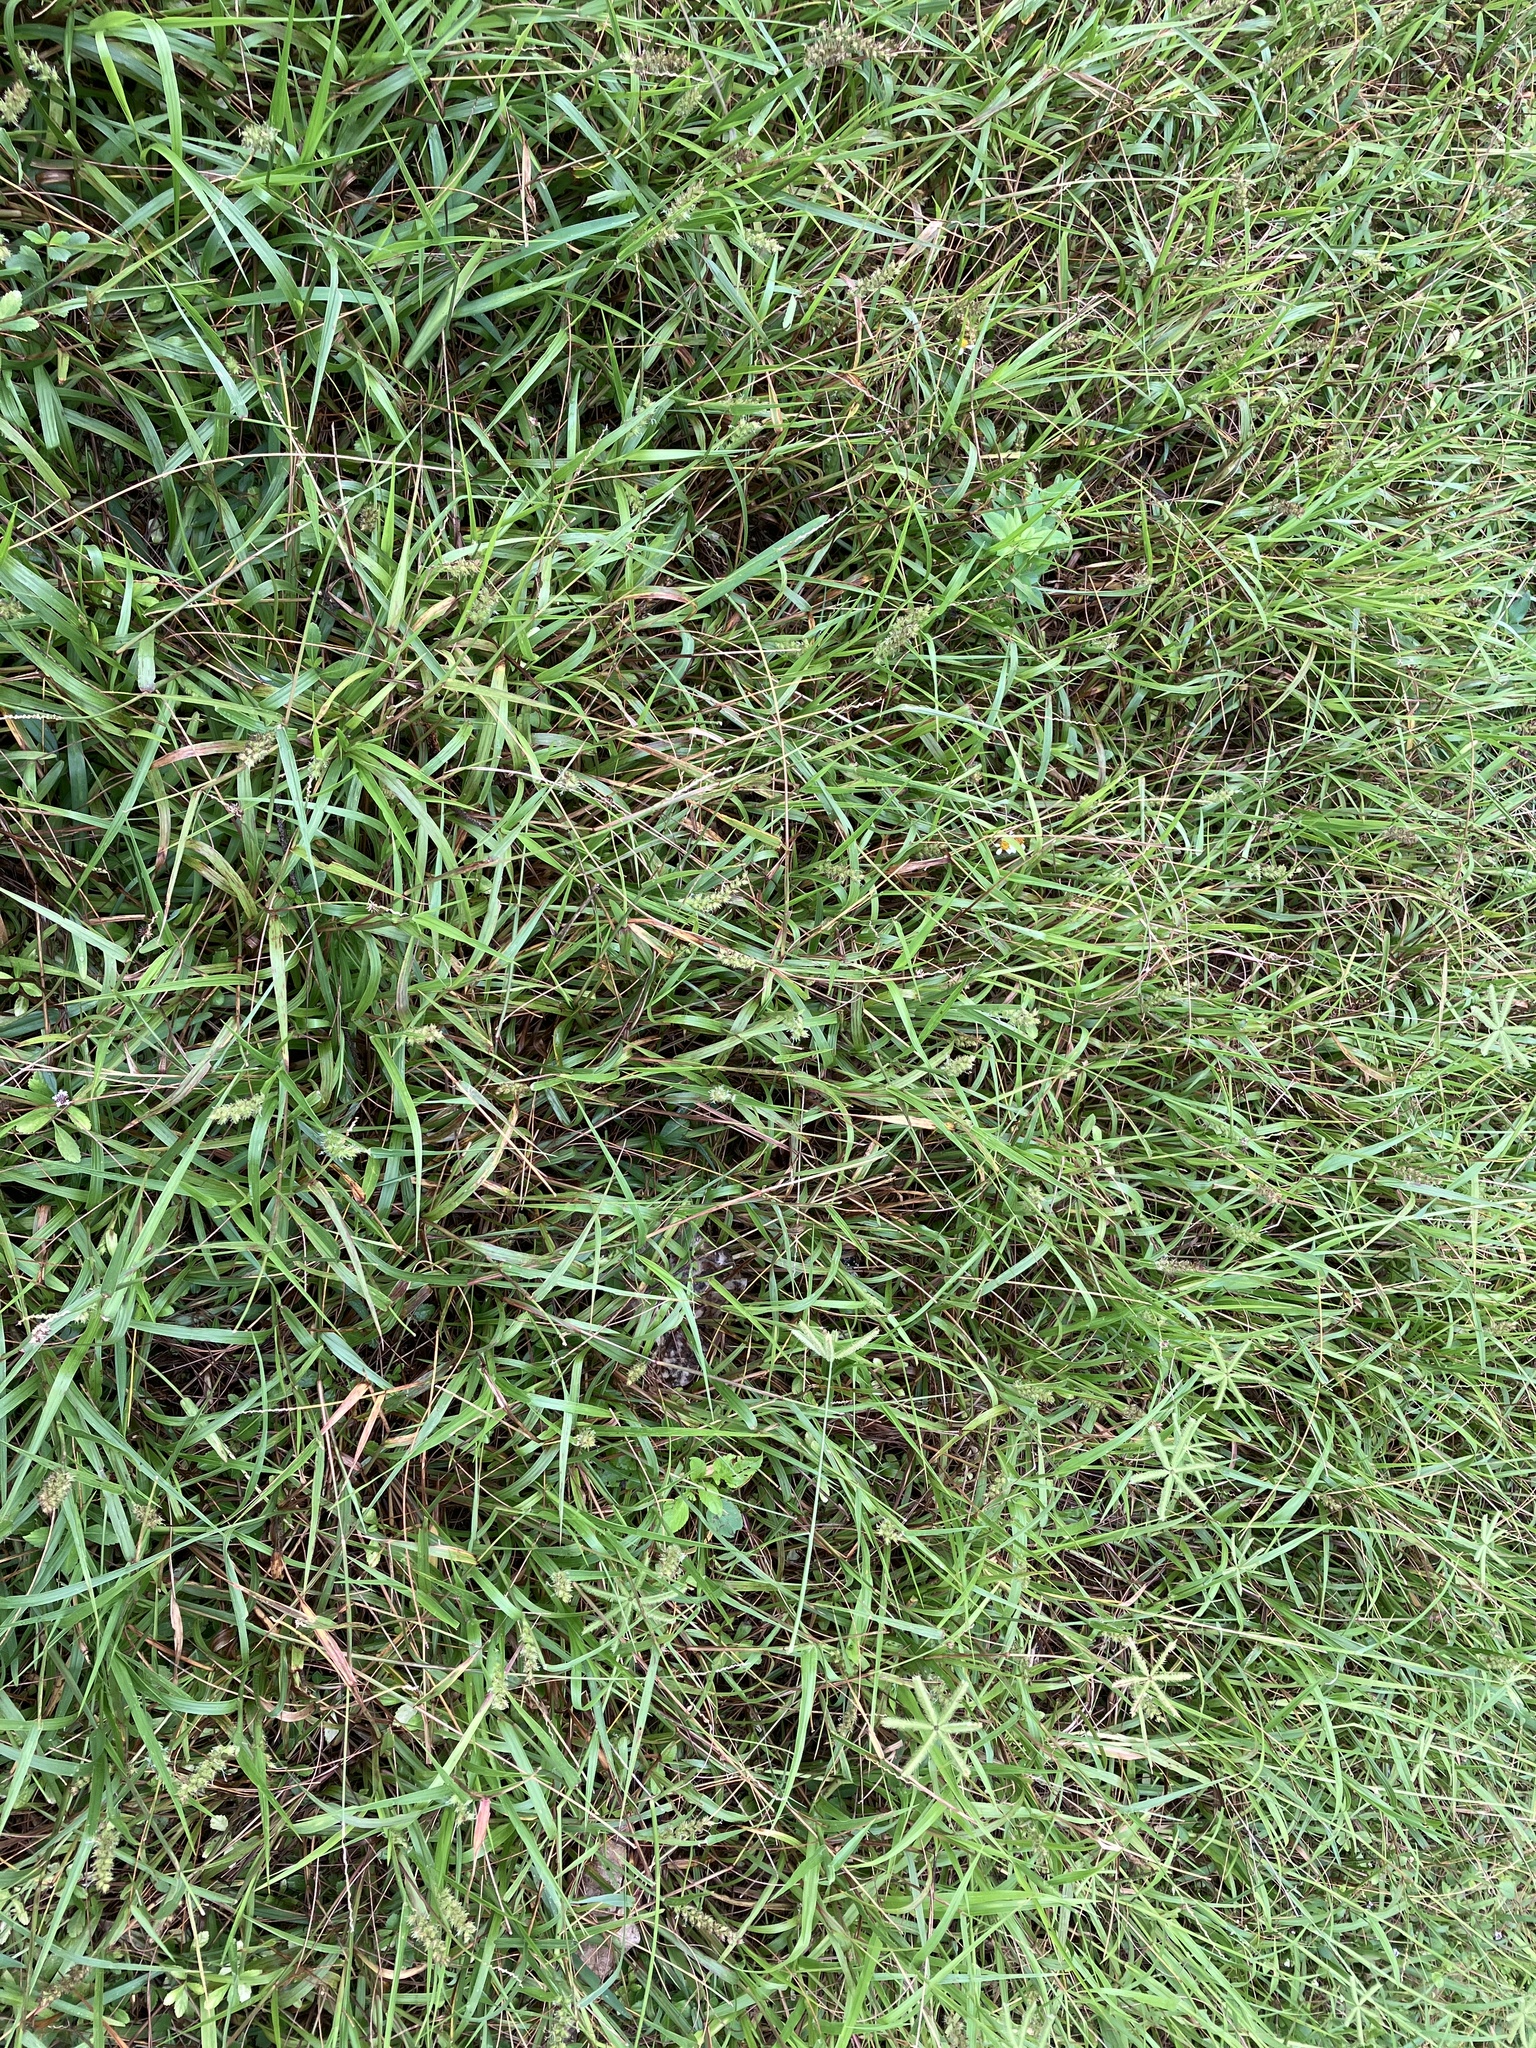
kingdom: Plantae
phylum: Tracheophyta
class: Liliopsida
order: Poales
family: Poaceae
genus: Cenchrus
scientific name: Cenchrus echinatus
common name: Southern sandbur
